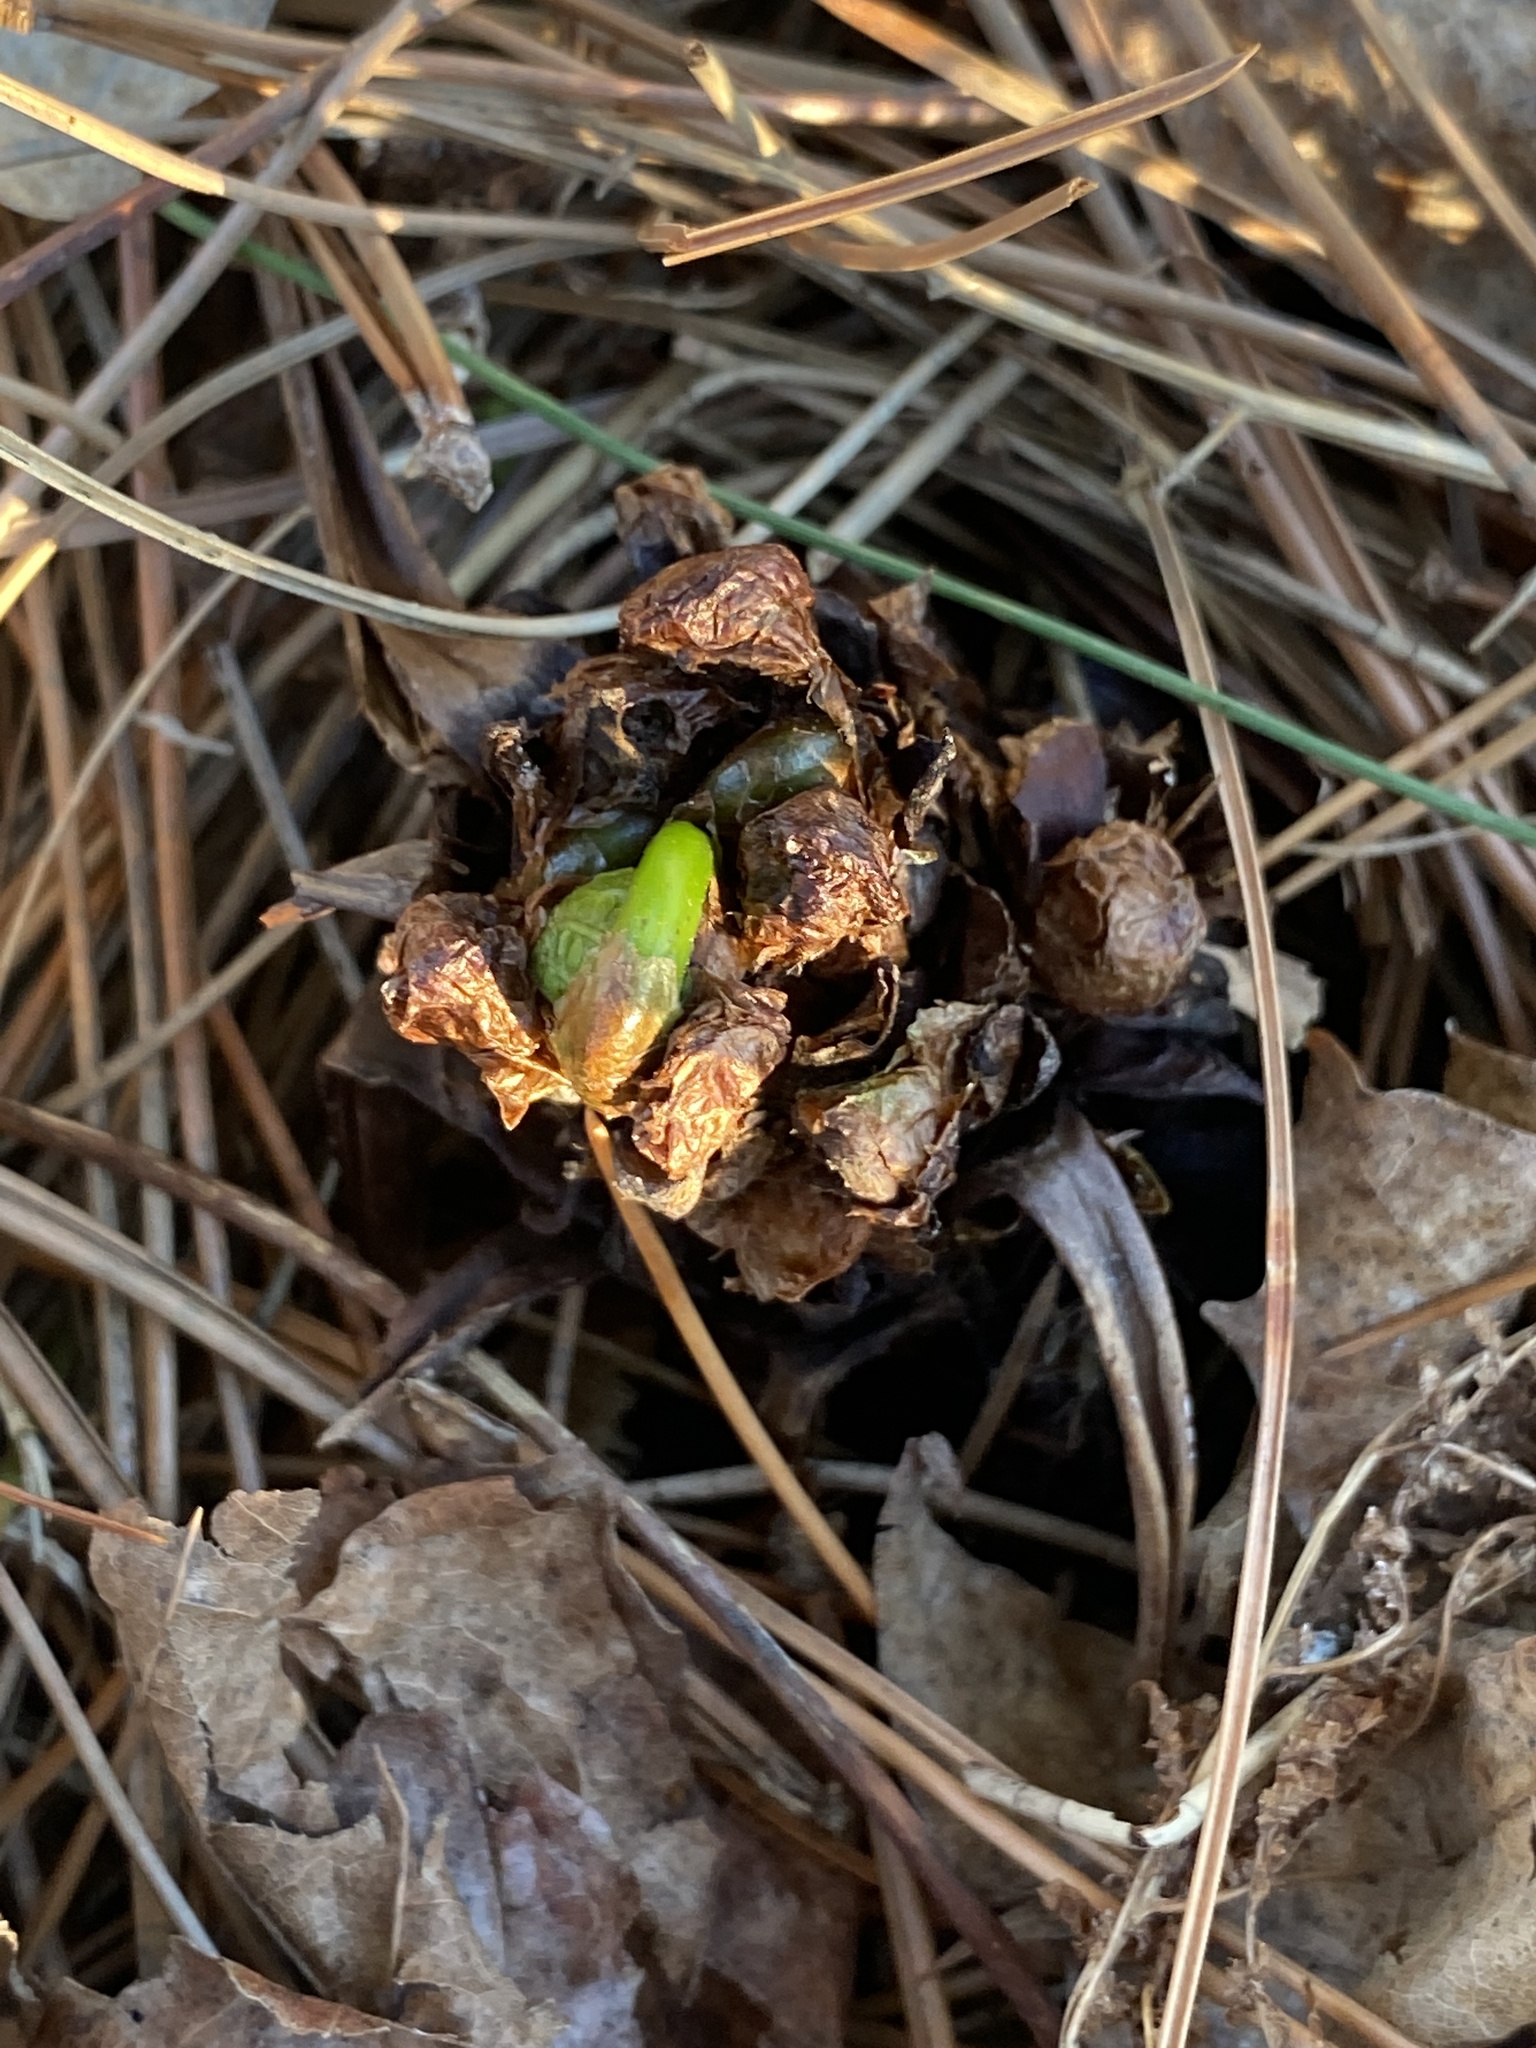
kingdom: Plantae
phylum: Tracheophyta
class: Polypodiopsida
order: Polypodiales
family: Onocleaceae
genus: Matteuccia
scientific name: Matteuccia struthiopteris
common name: Ostrich fern
